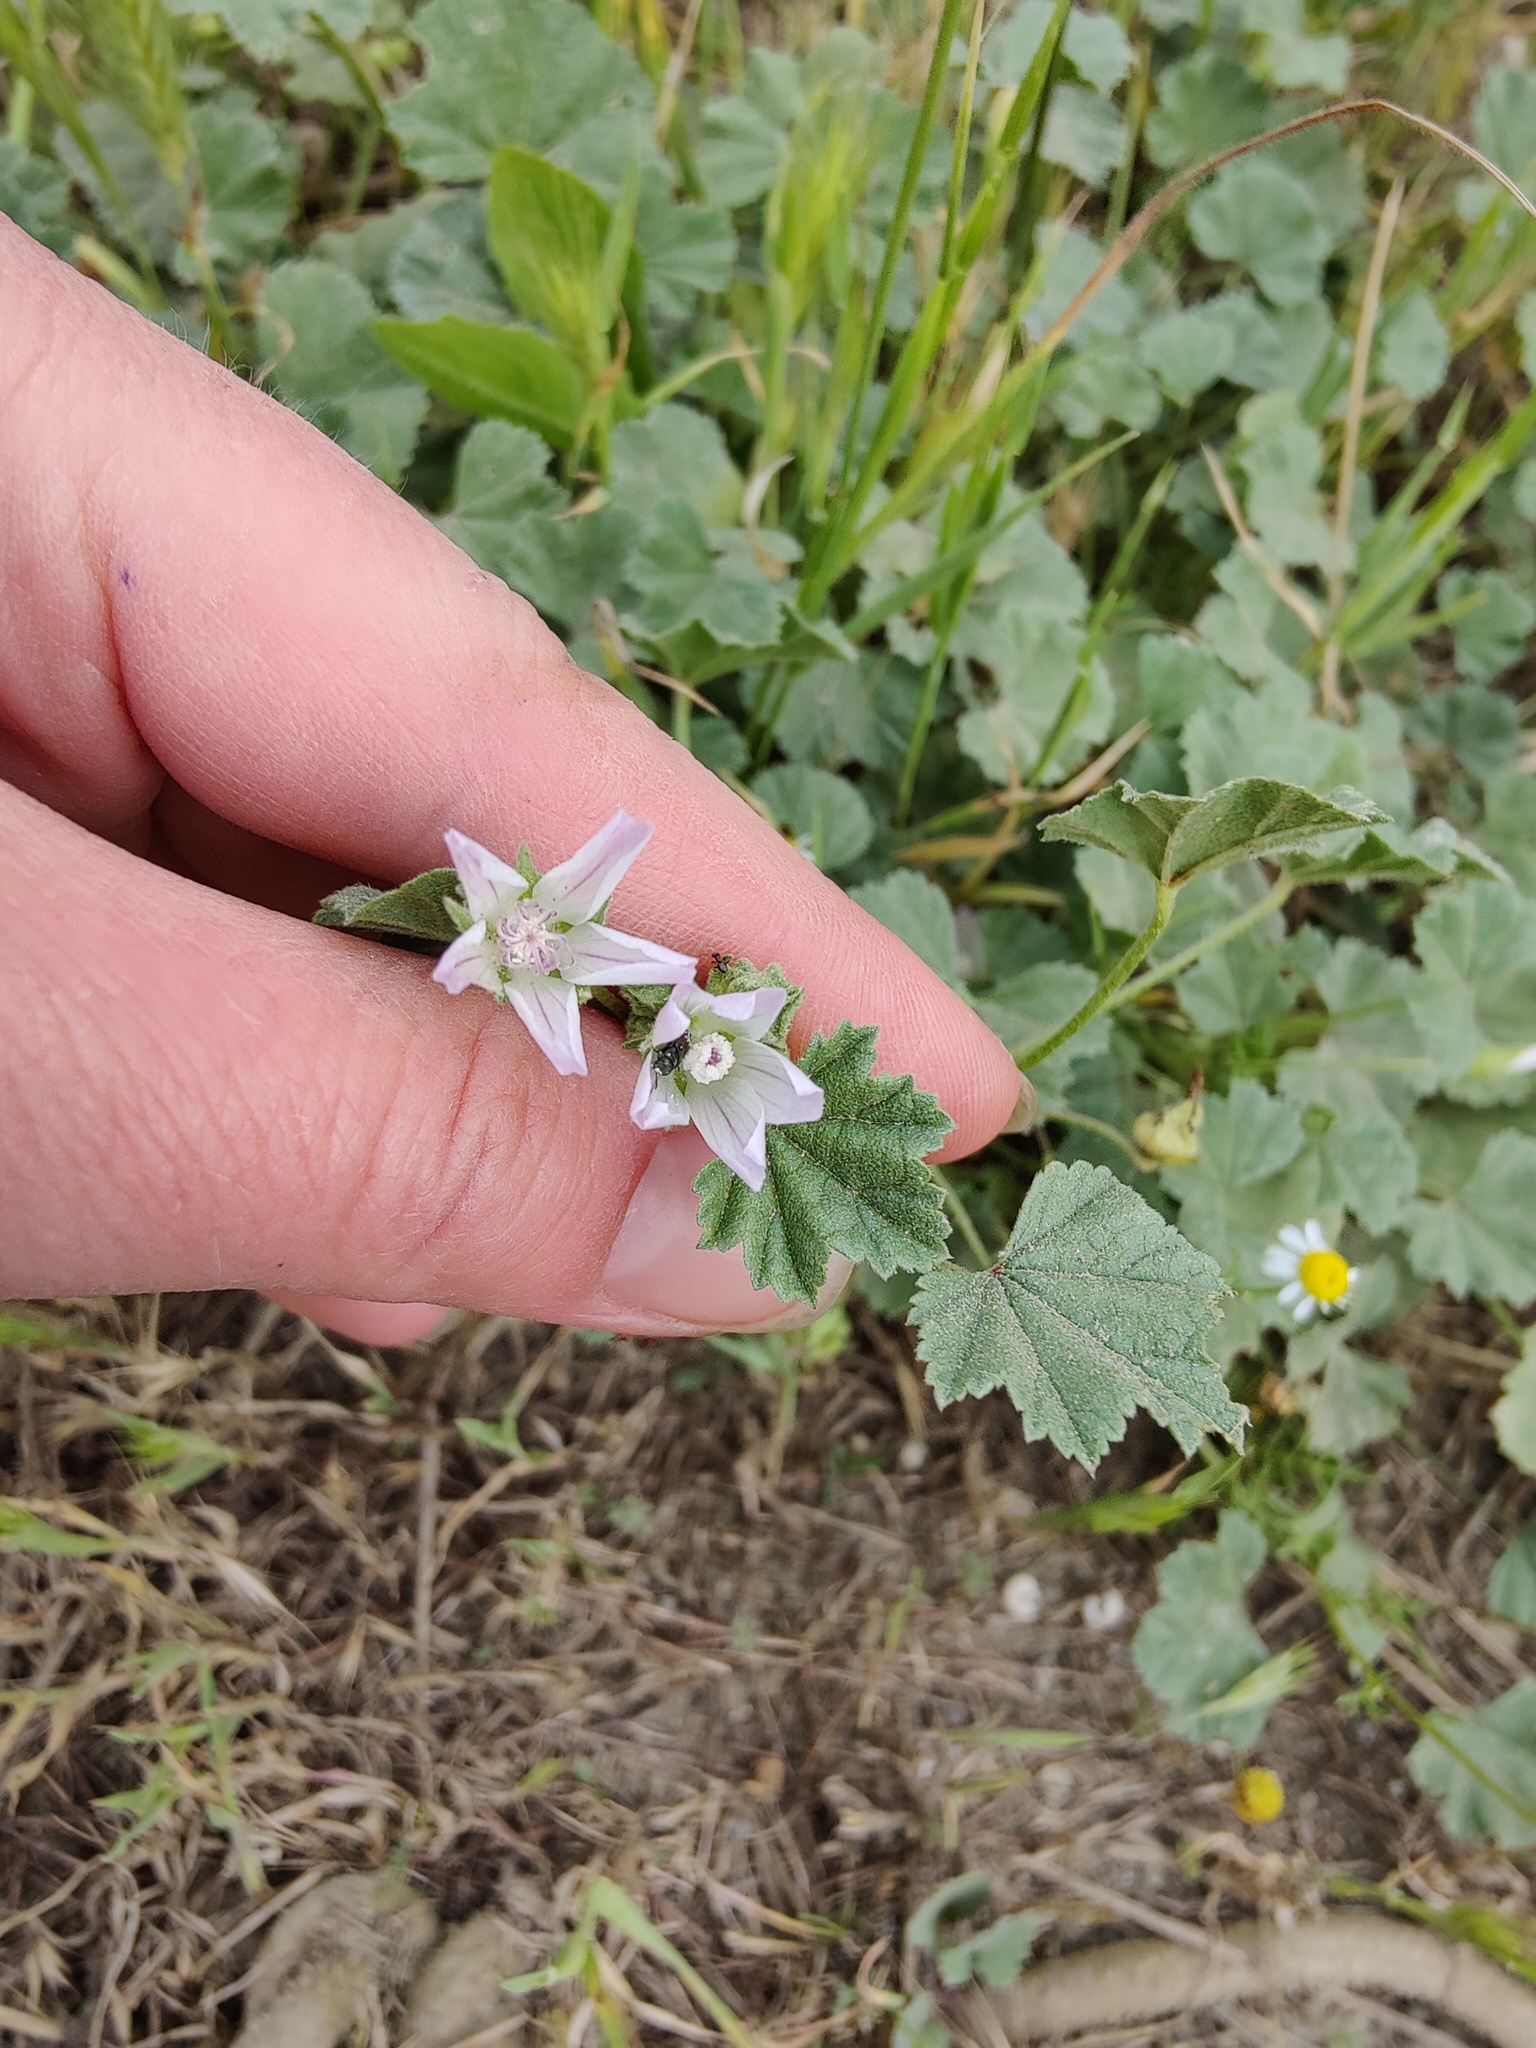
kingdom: Plantae
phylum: Tracheophyta
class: Magnoliopsida
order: Malvales
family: Malvaceae
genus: Malva
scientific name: Malva neglecta
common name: Common mallow
